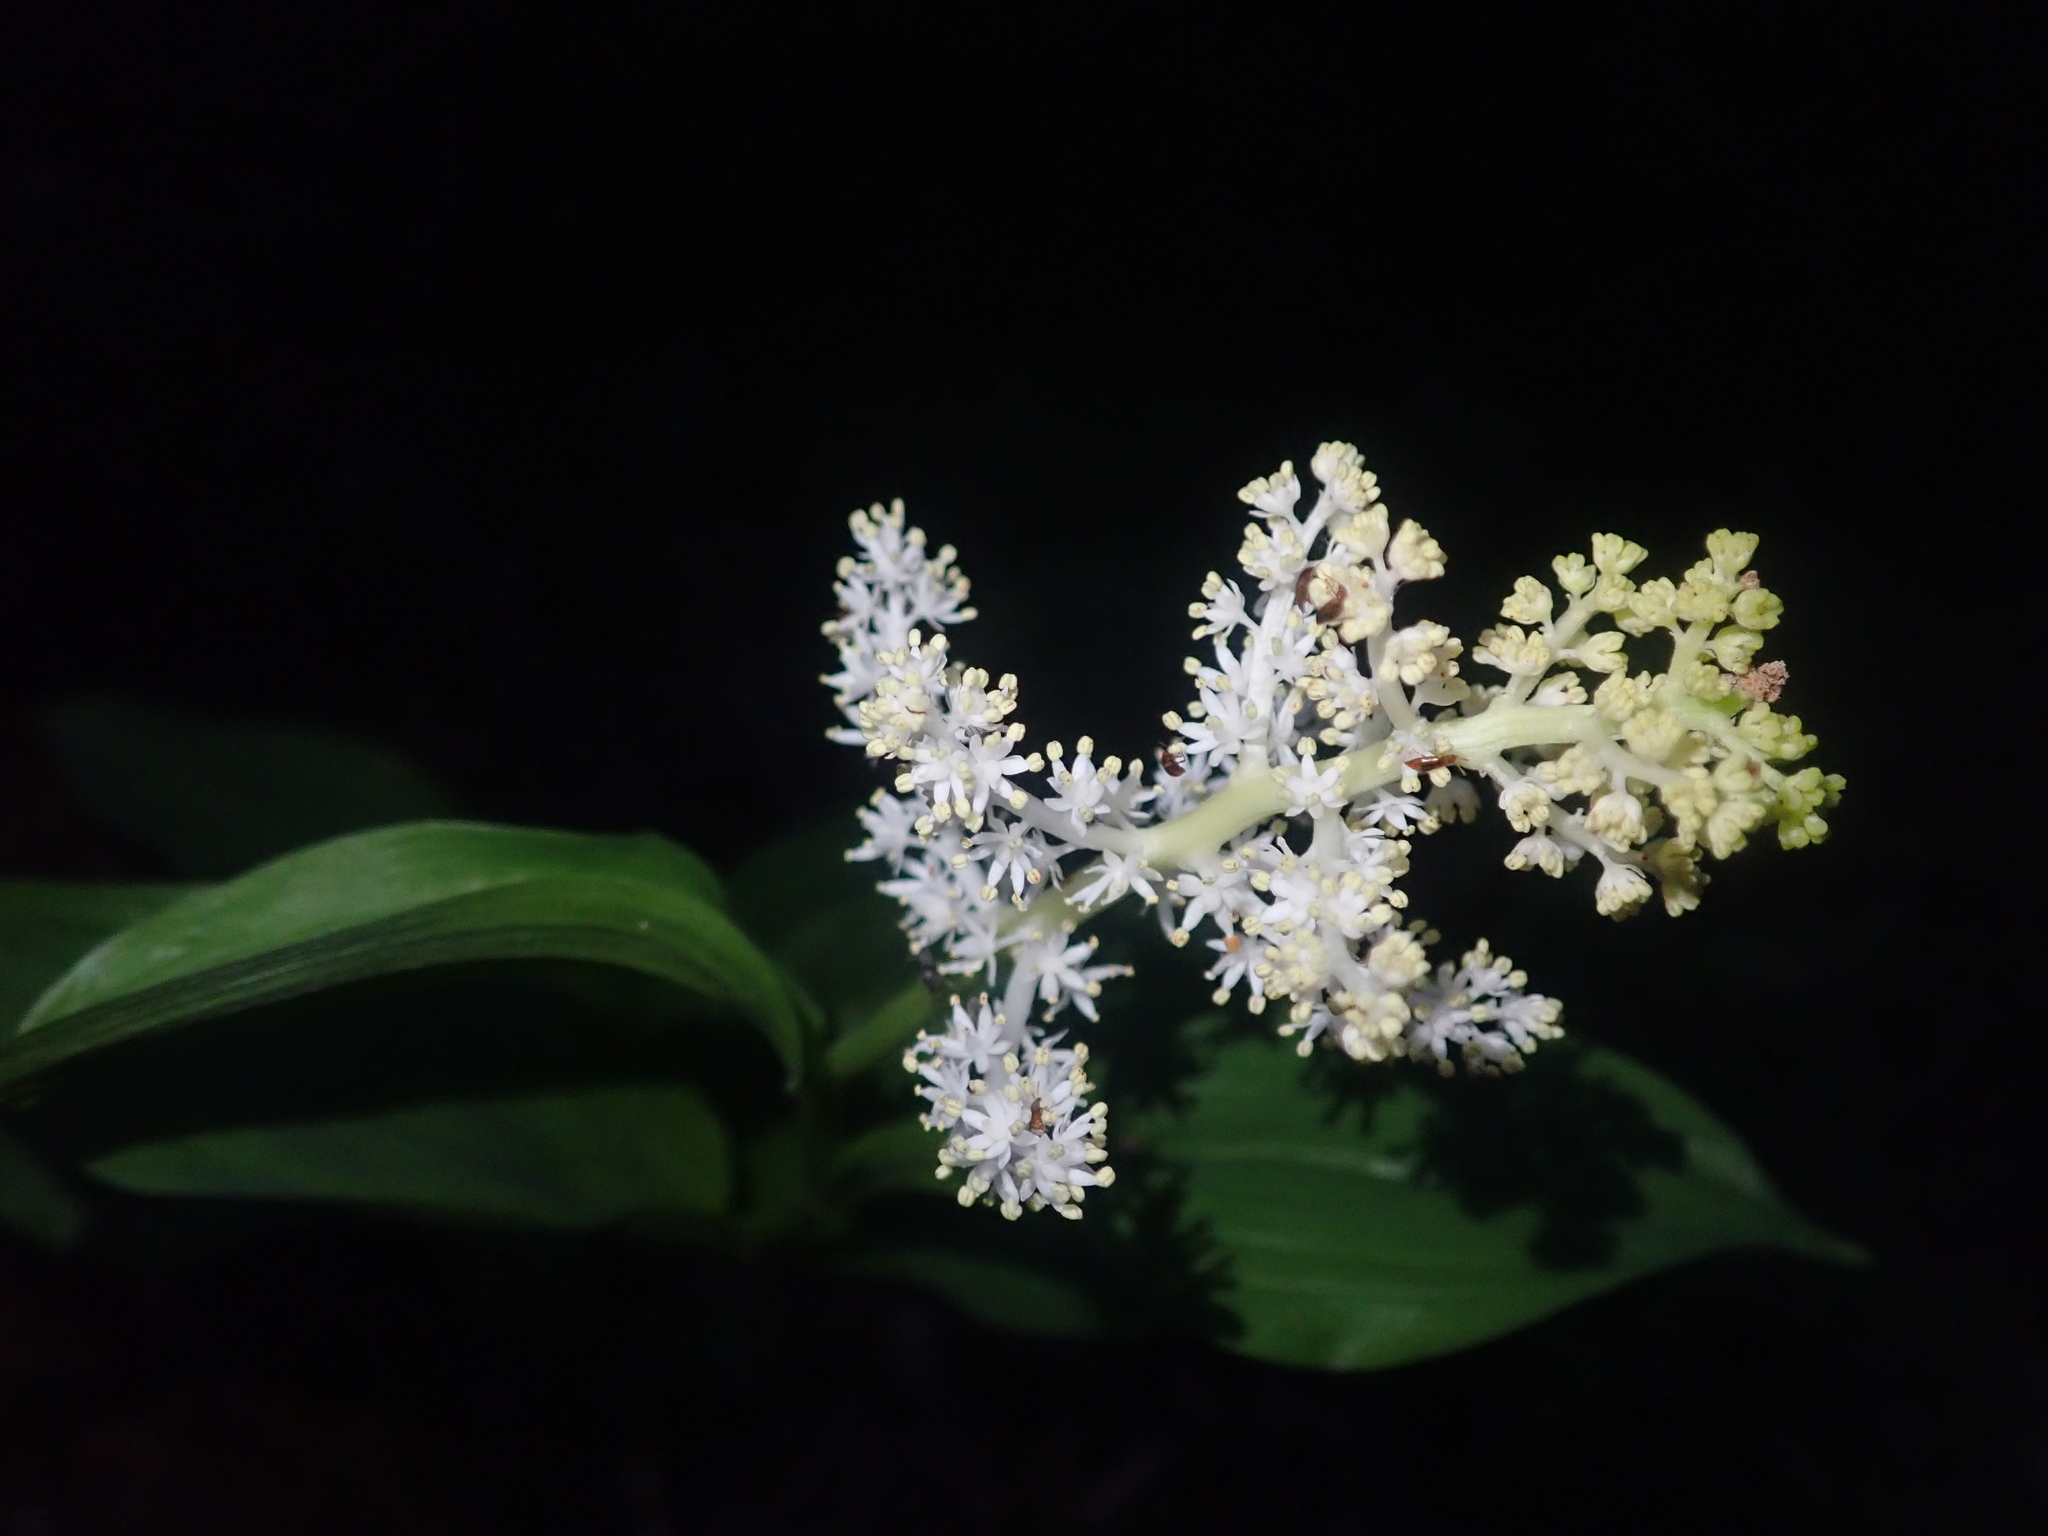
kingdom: Plantae
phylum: Tracheophyta
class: Liliopsida
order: Asparagales
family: Asparagaceae
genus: Maianthemum
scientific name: Maianthemum racemosum
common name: False spikenard
